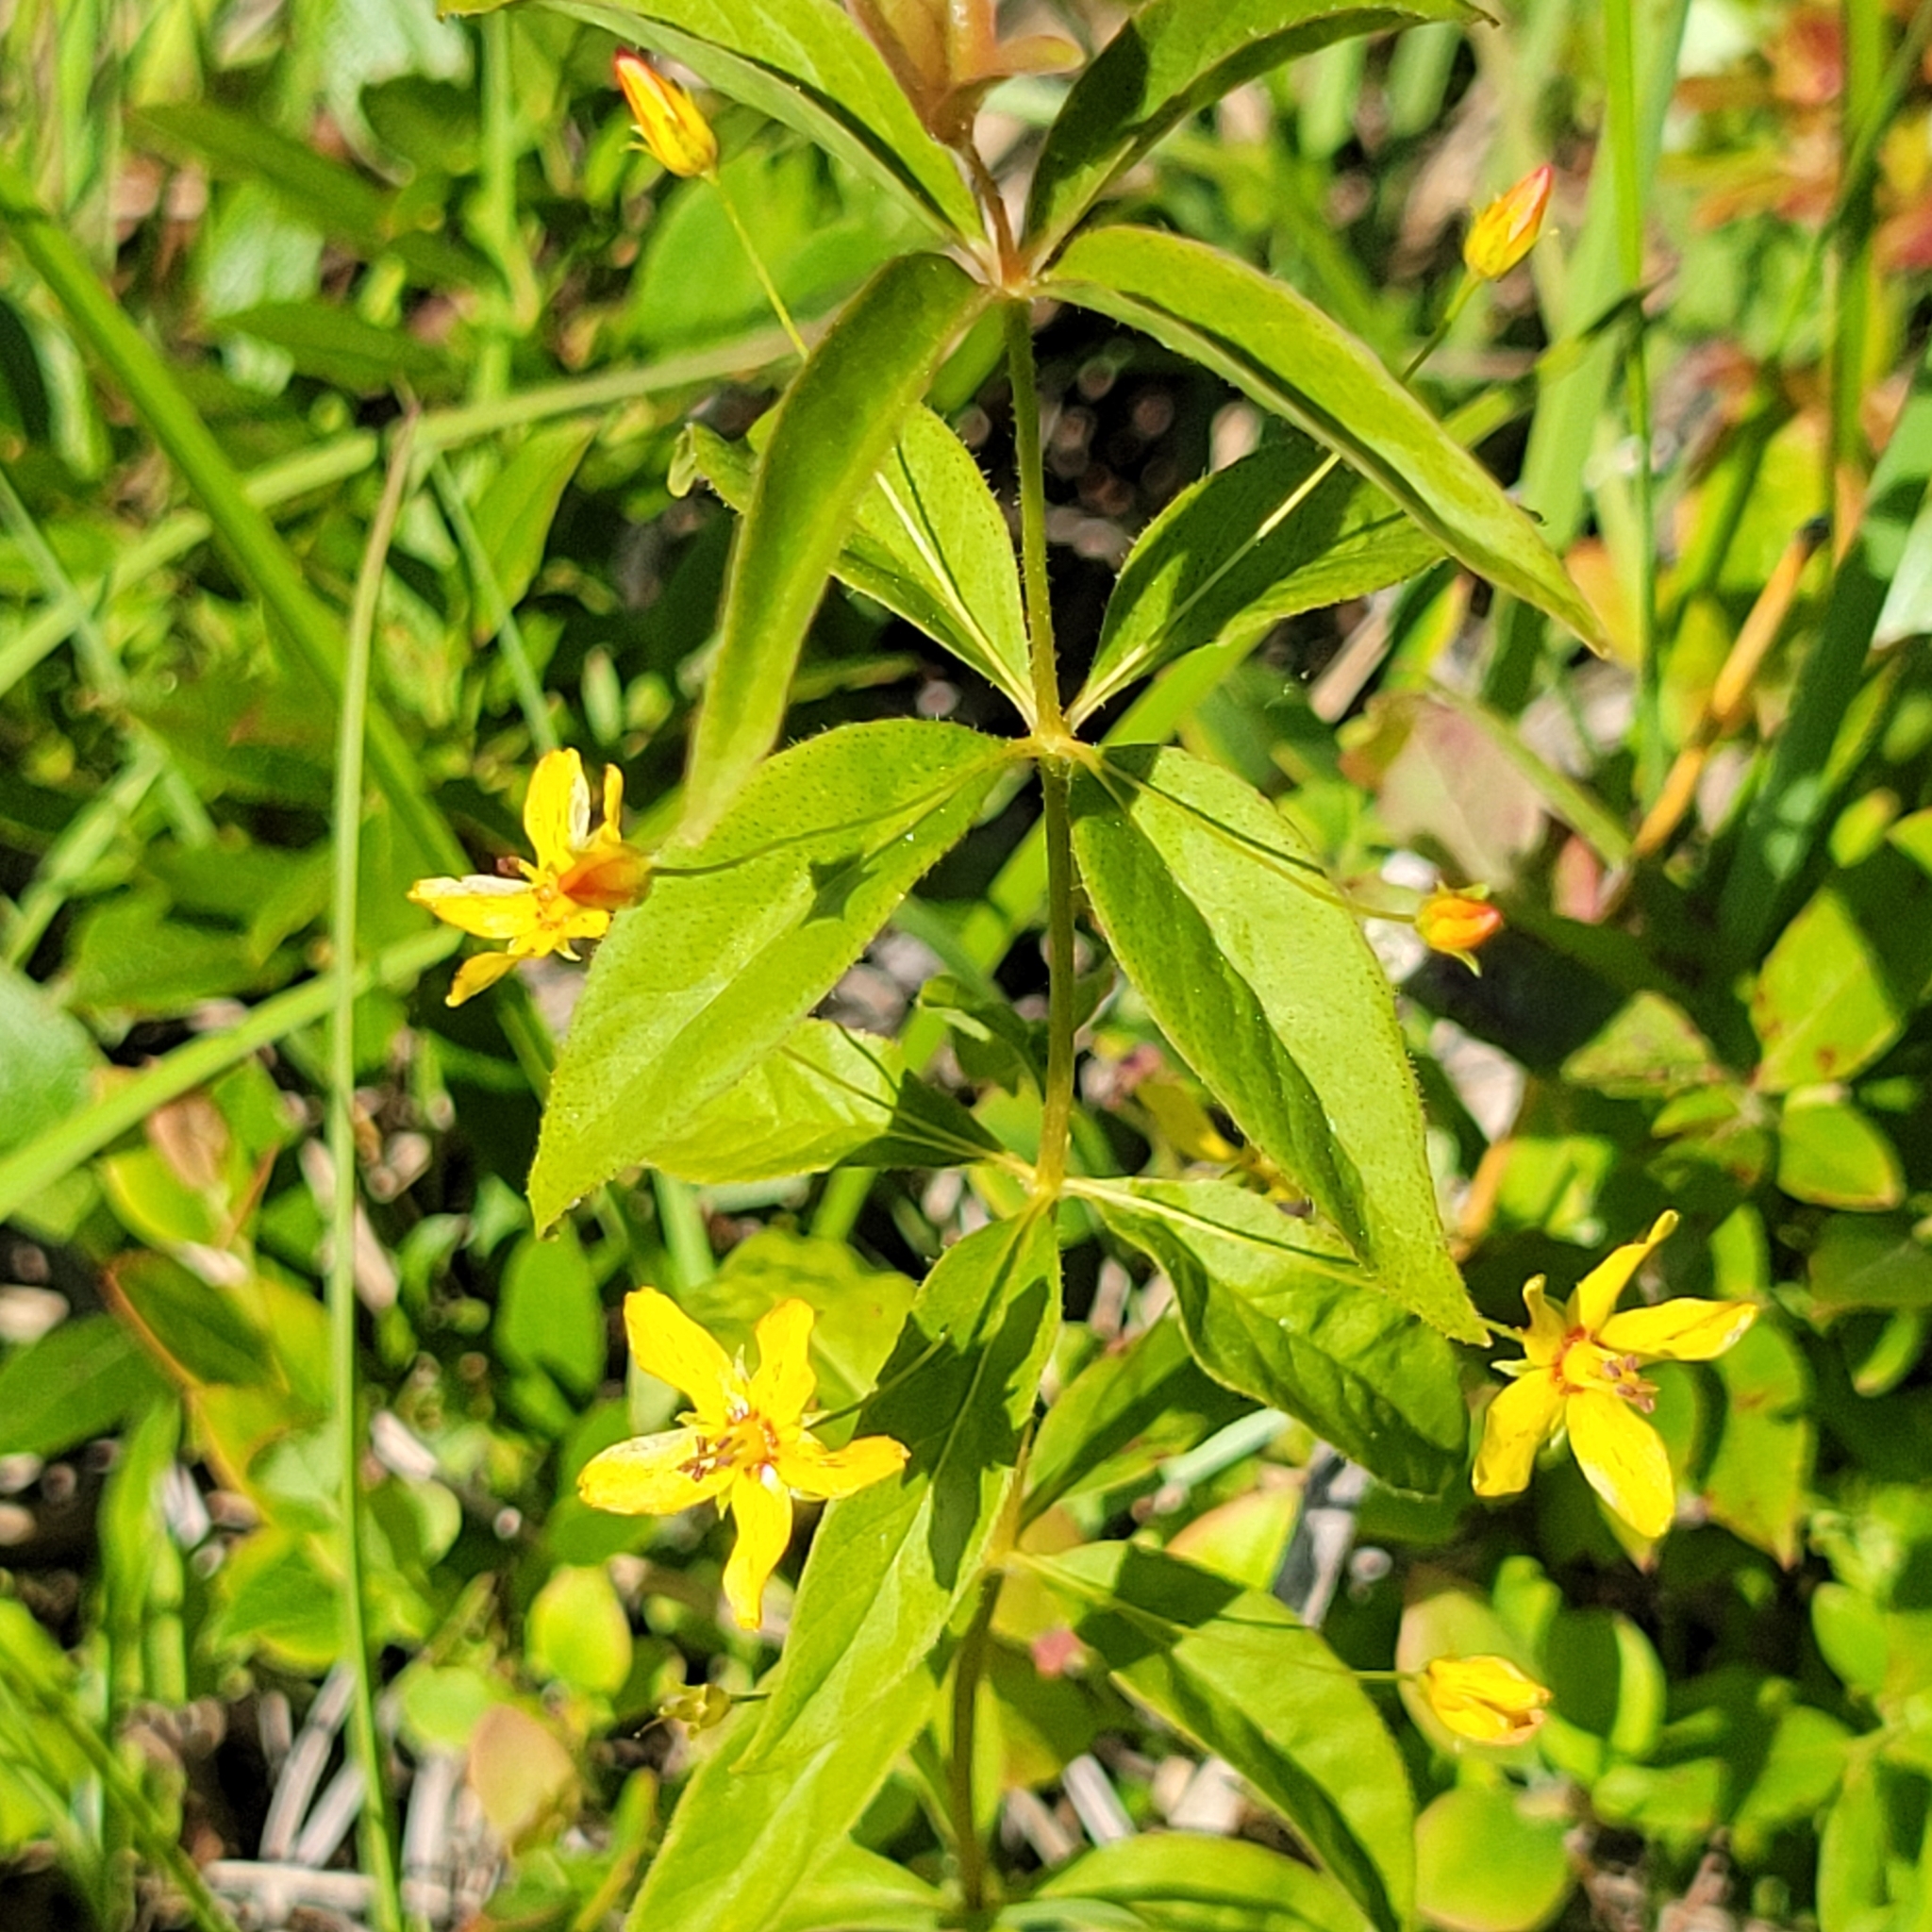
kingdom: Plantae
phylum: Tracheophyta
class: Magnoliopsida
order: Ericales
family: Primulaceae
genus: Lysimachia
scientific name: Lysimachia quadrifolia
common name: Whorled loosestrife
